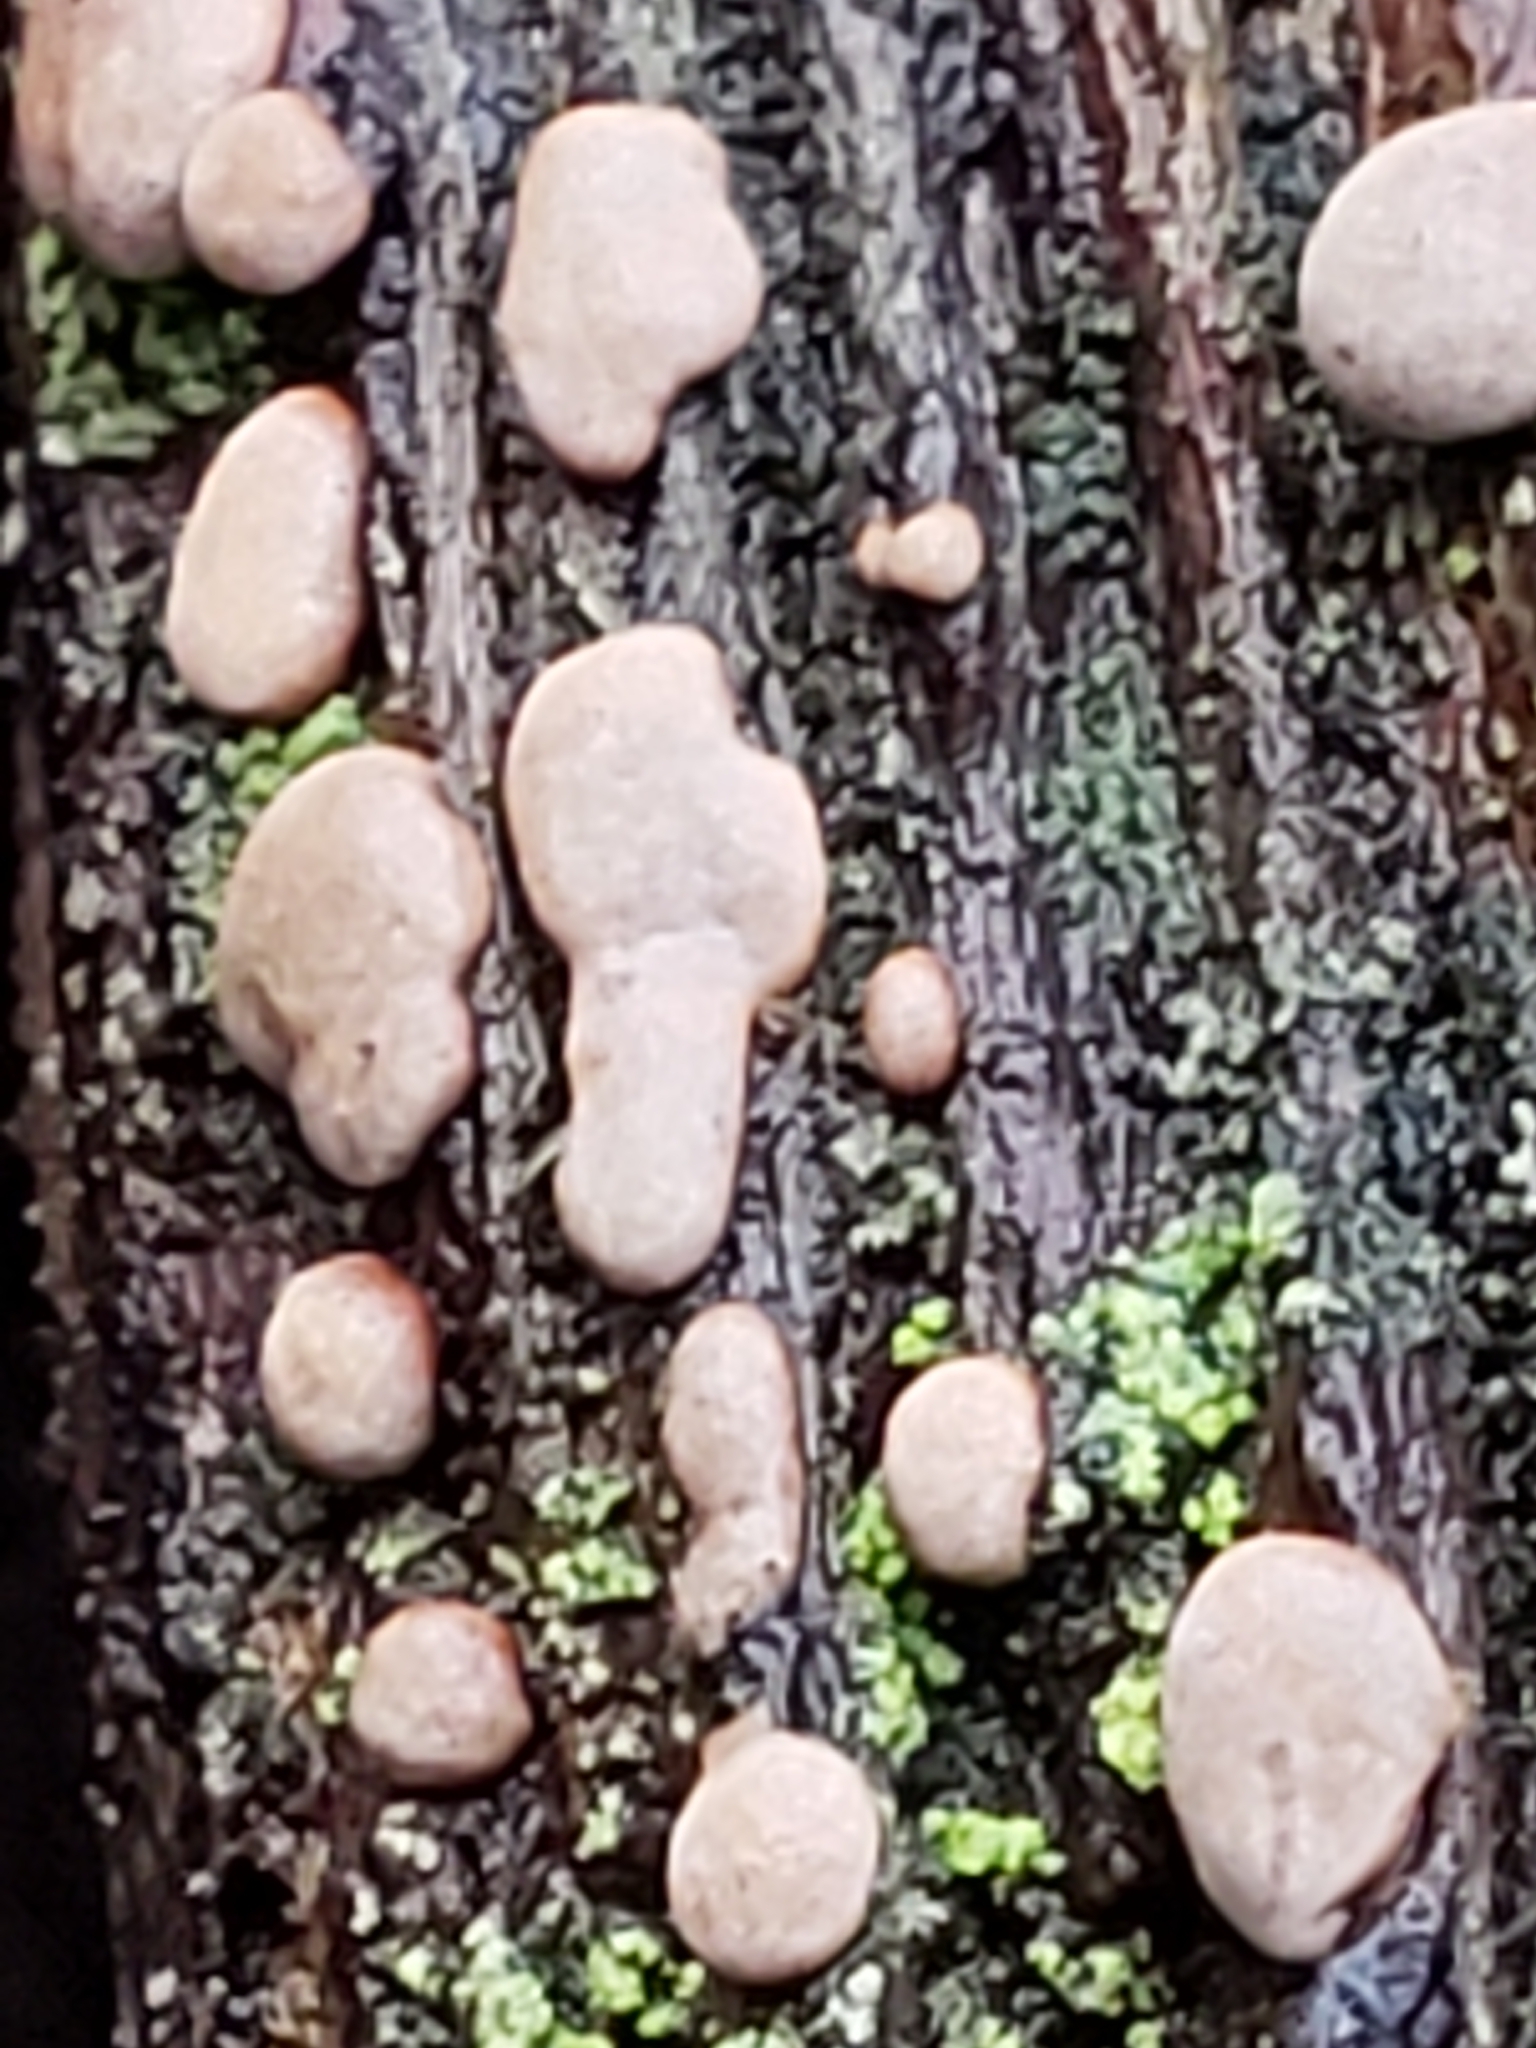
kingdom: Fungi
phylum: Basidiomycota
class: Agaricomycetes
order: Russulales
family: Stereaceae
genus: Xylobolus
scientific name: Xylobolus frustulatus
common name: Ceramic parchment
